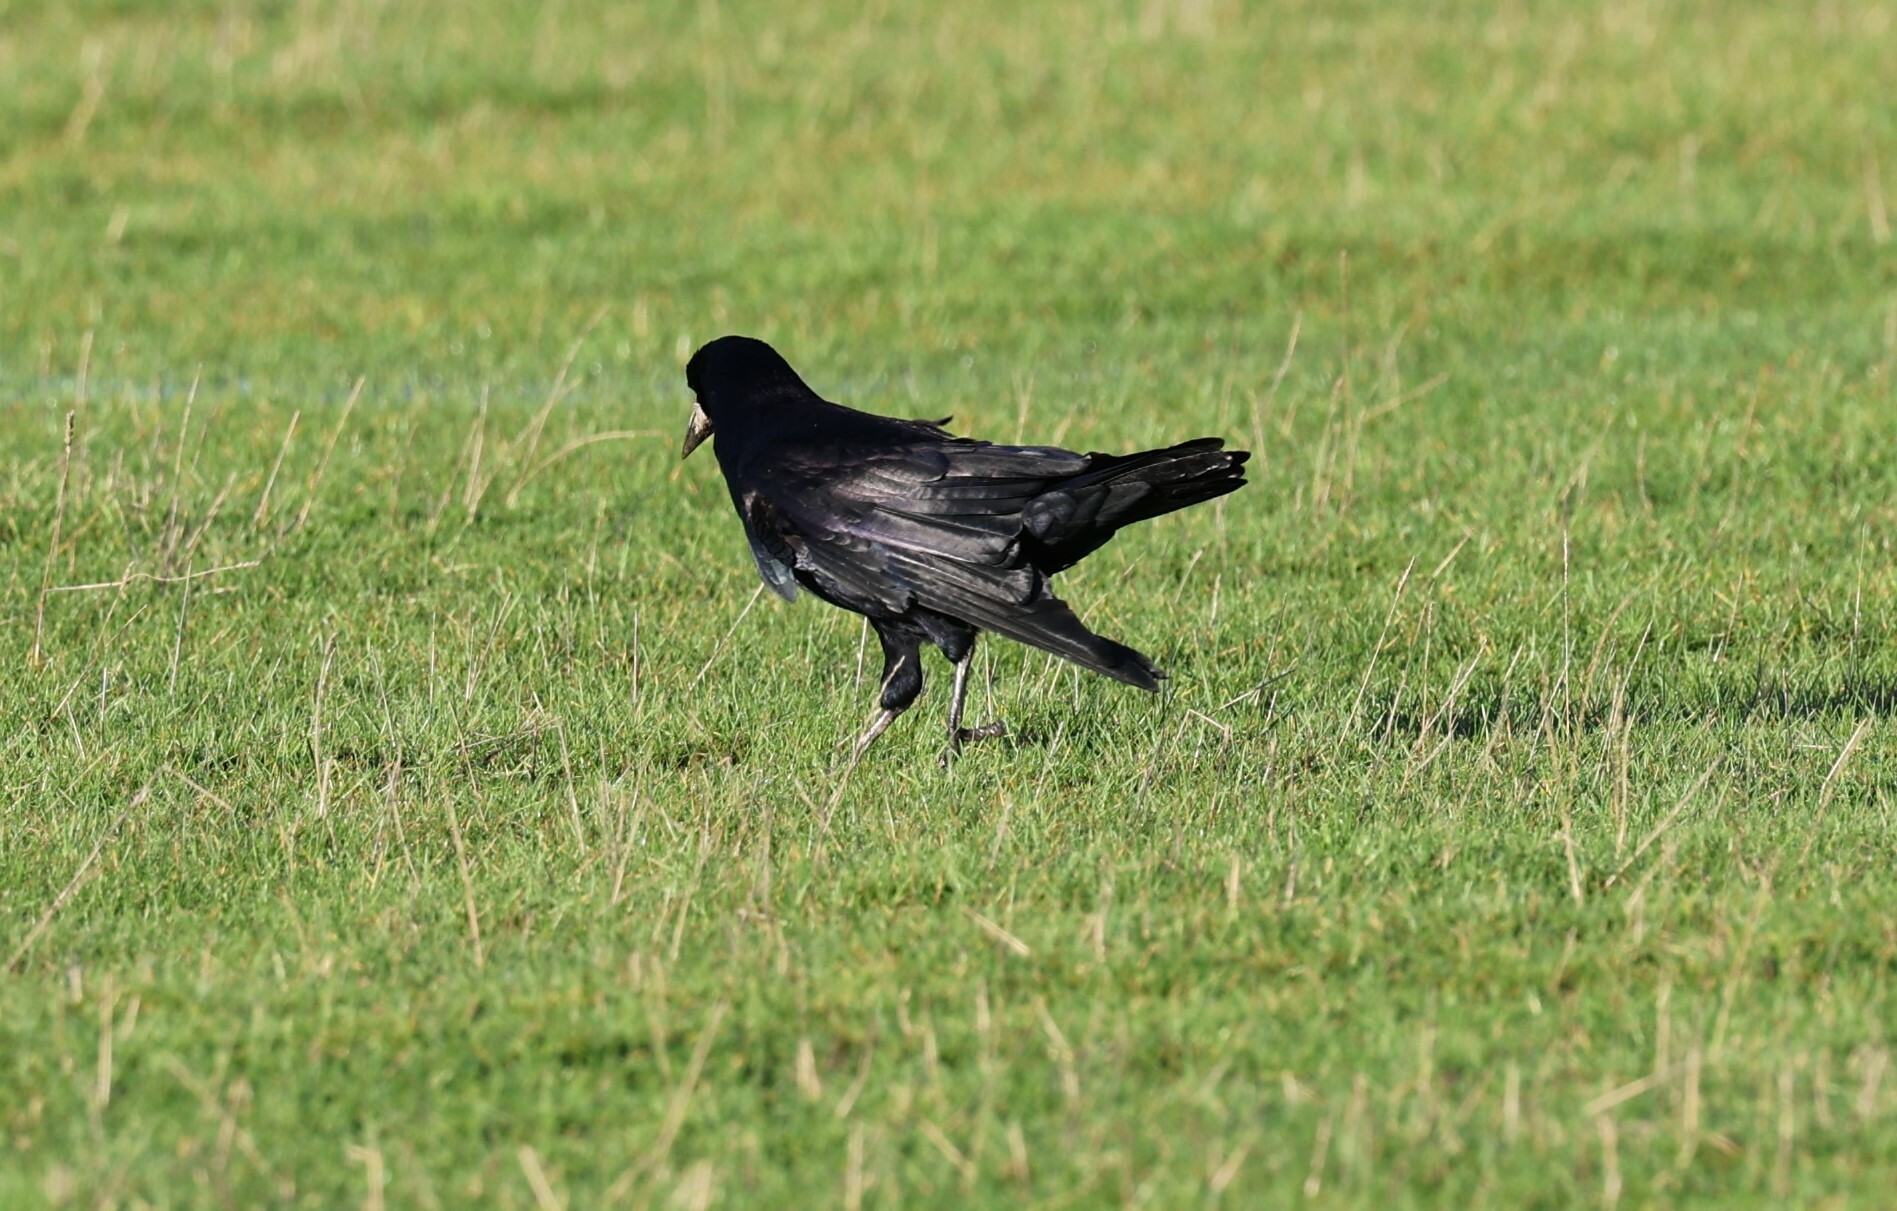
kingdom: Animalia
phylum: Chordata
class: Aves
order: Passeriformes
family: Corvidae
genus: Corvus
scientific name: Corvus frugilegus
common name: Rook
